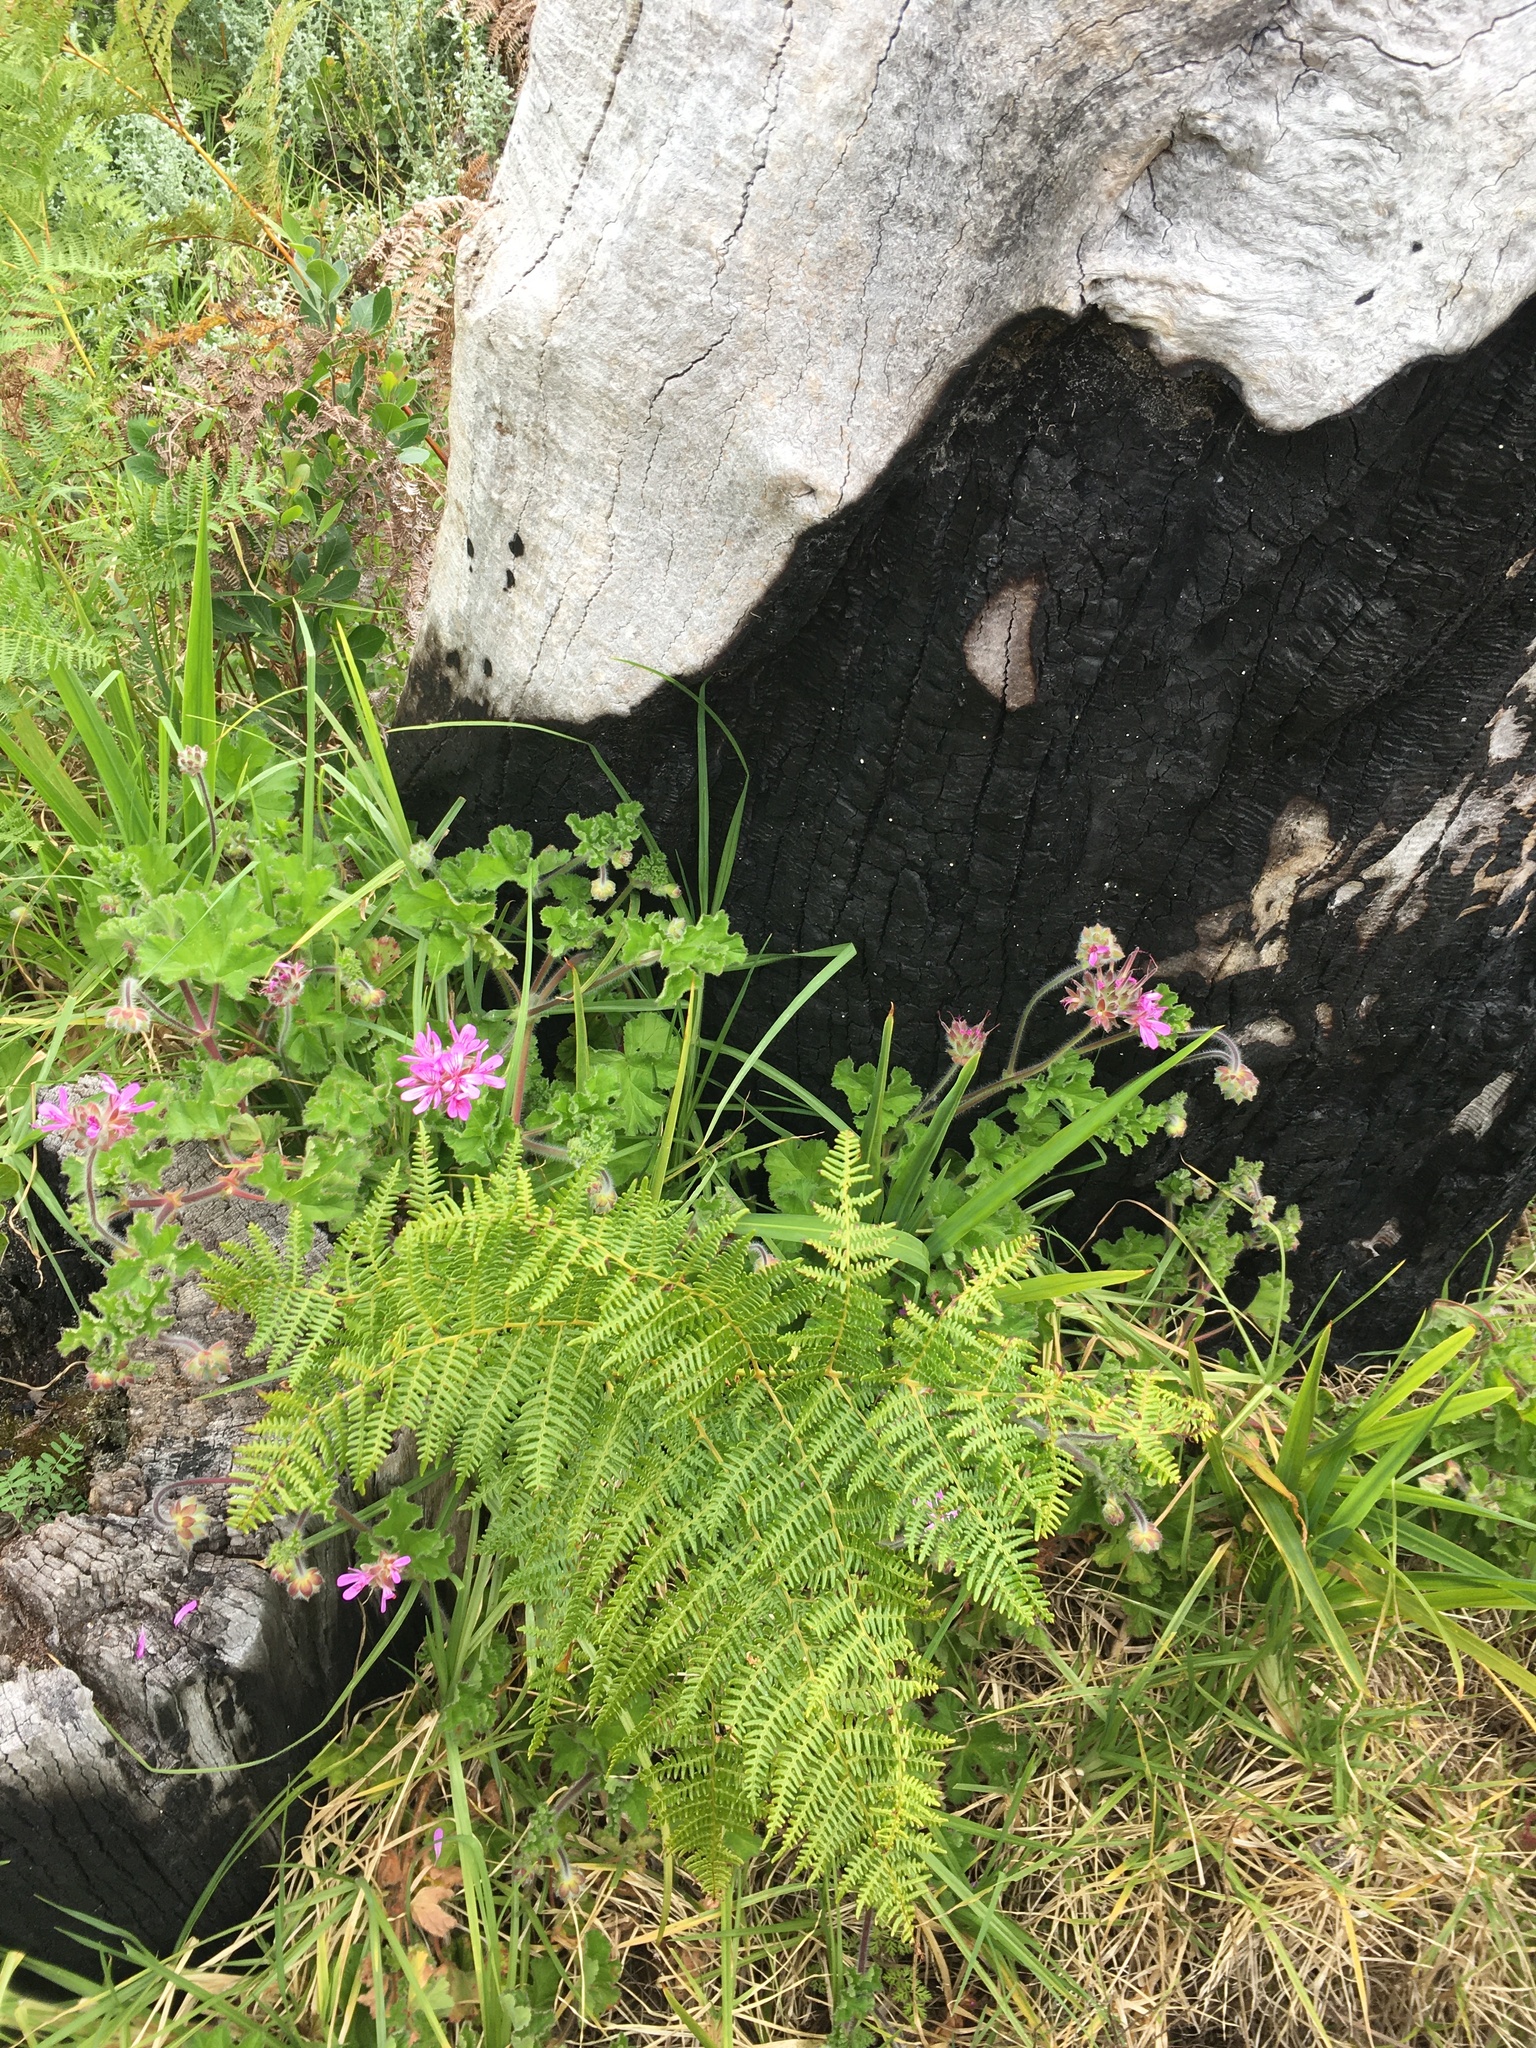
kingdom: Plantae
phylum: Tracheophyta
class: Magnoliopsida
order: Geraniales
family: Geraniaceae
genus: Pelargonium
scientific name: Pelargonium capitatum
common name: Rose scented geranium
